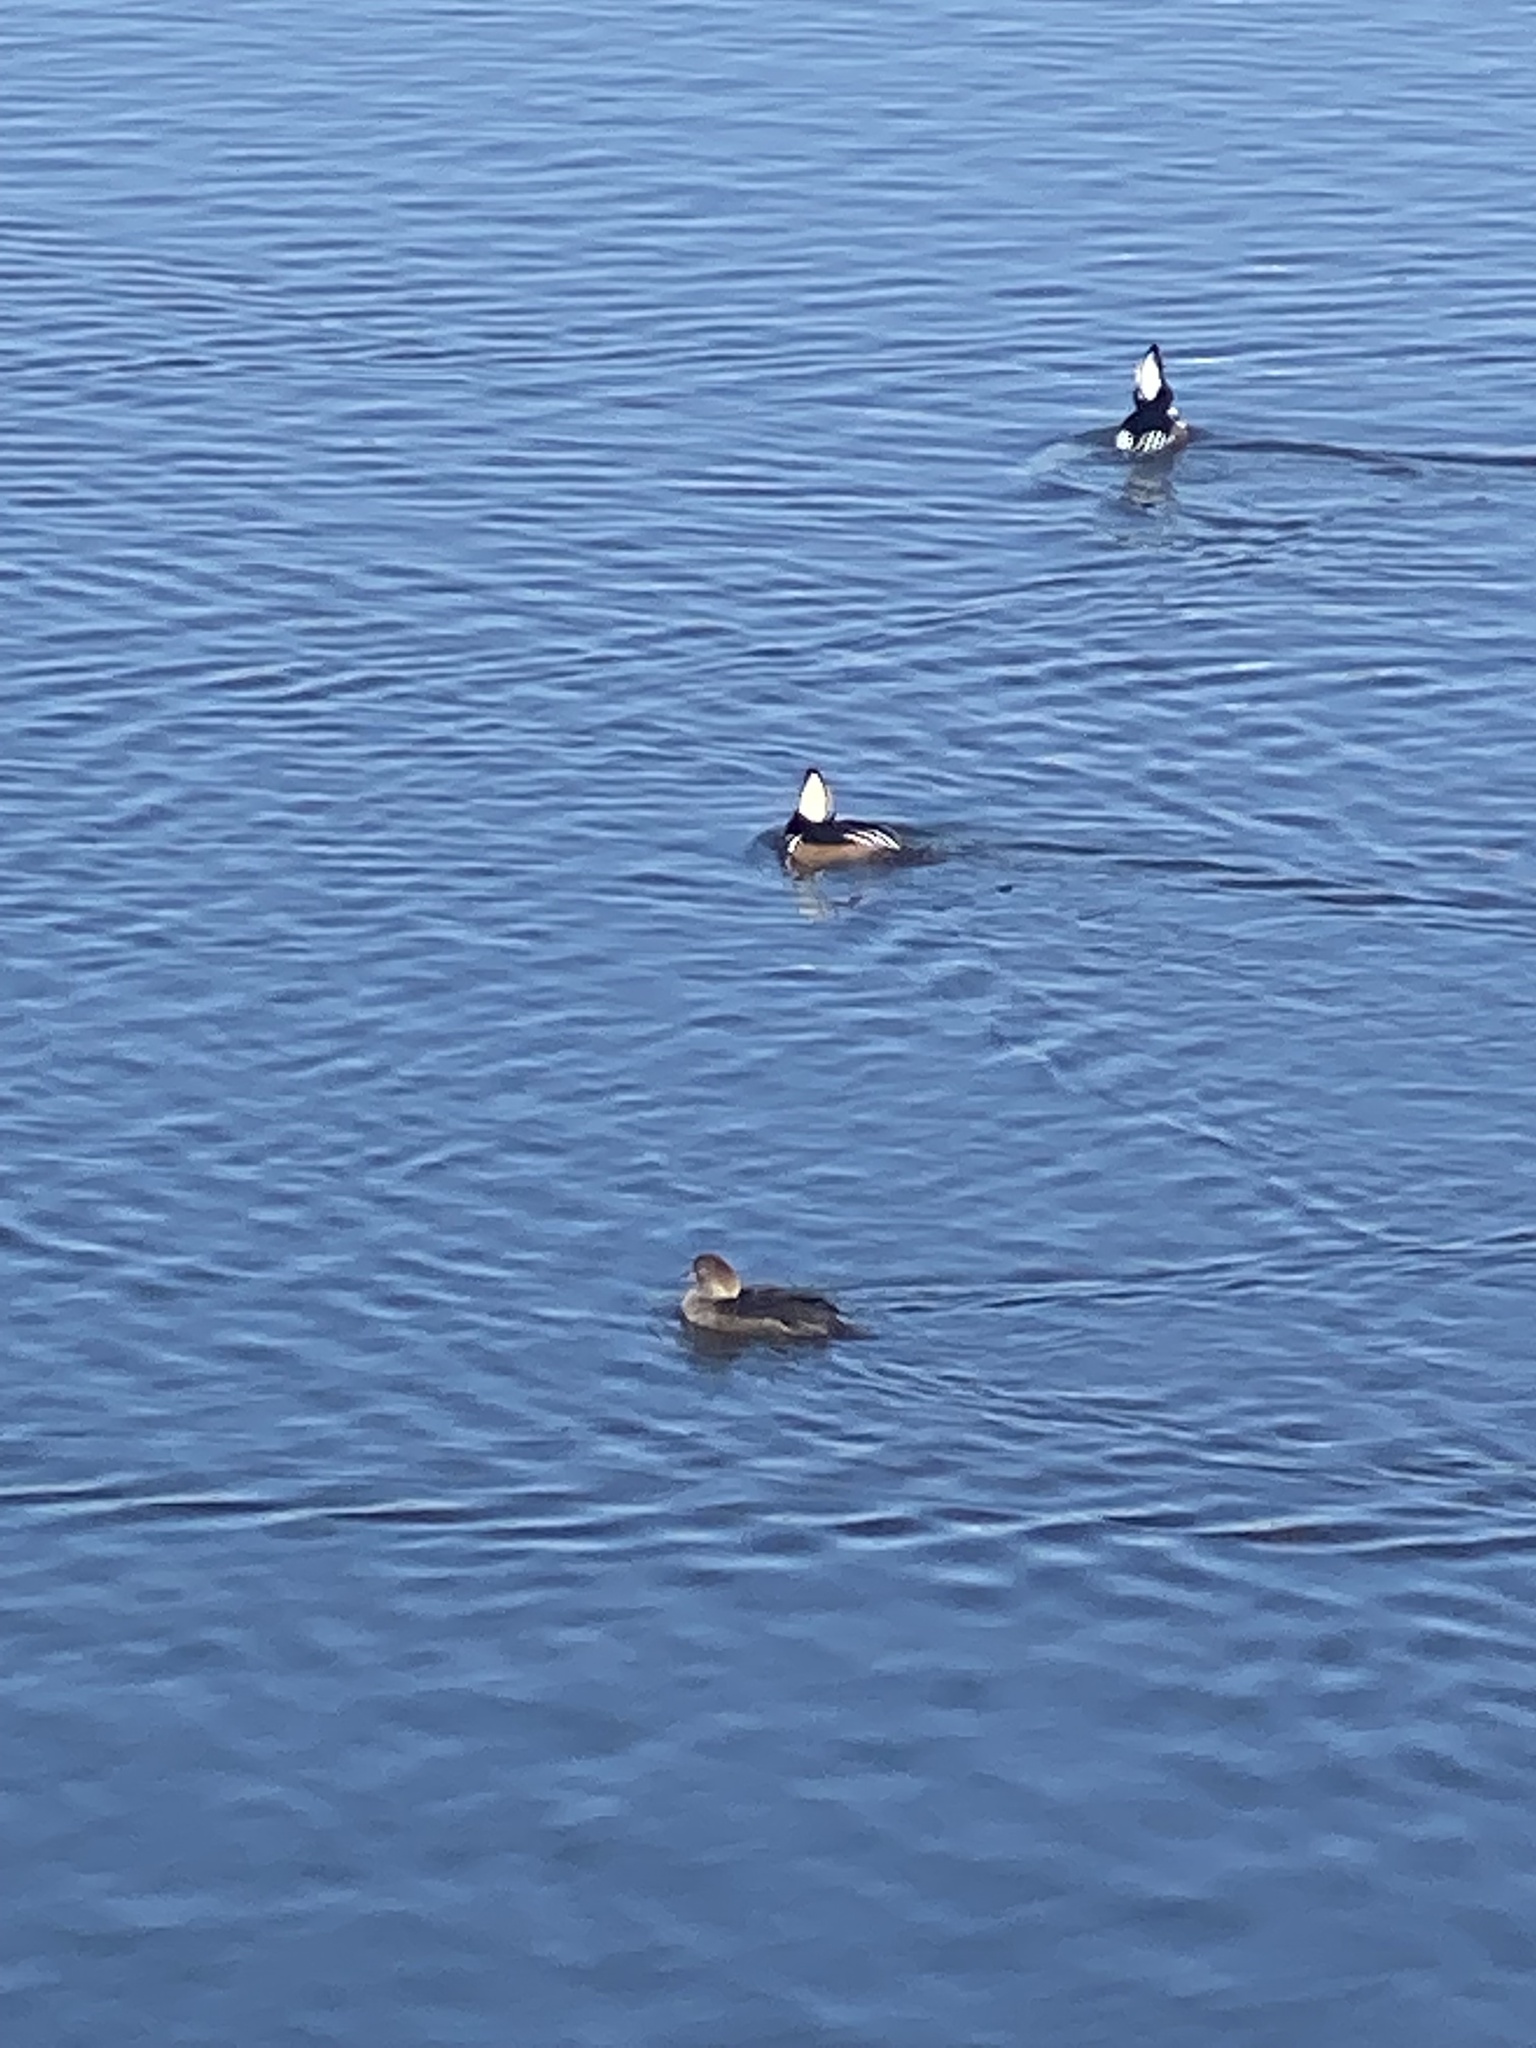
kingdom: Animalia
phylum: Chordata
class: Aves
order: Anseriformes
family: Anatidae
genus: Lophodytes
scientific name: Lophodytes cucullatus
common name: Hooded merganser
